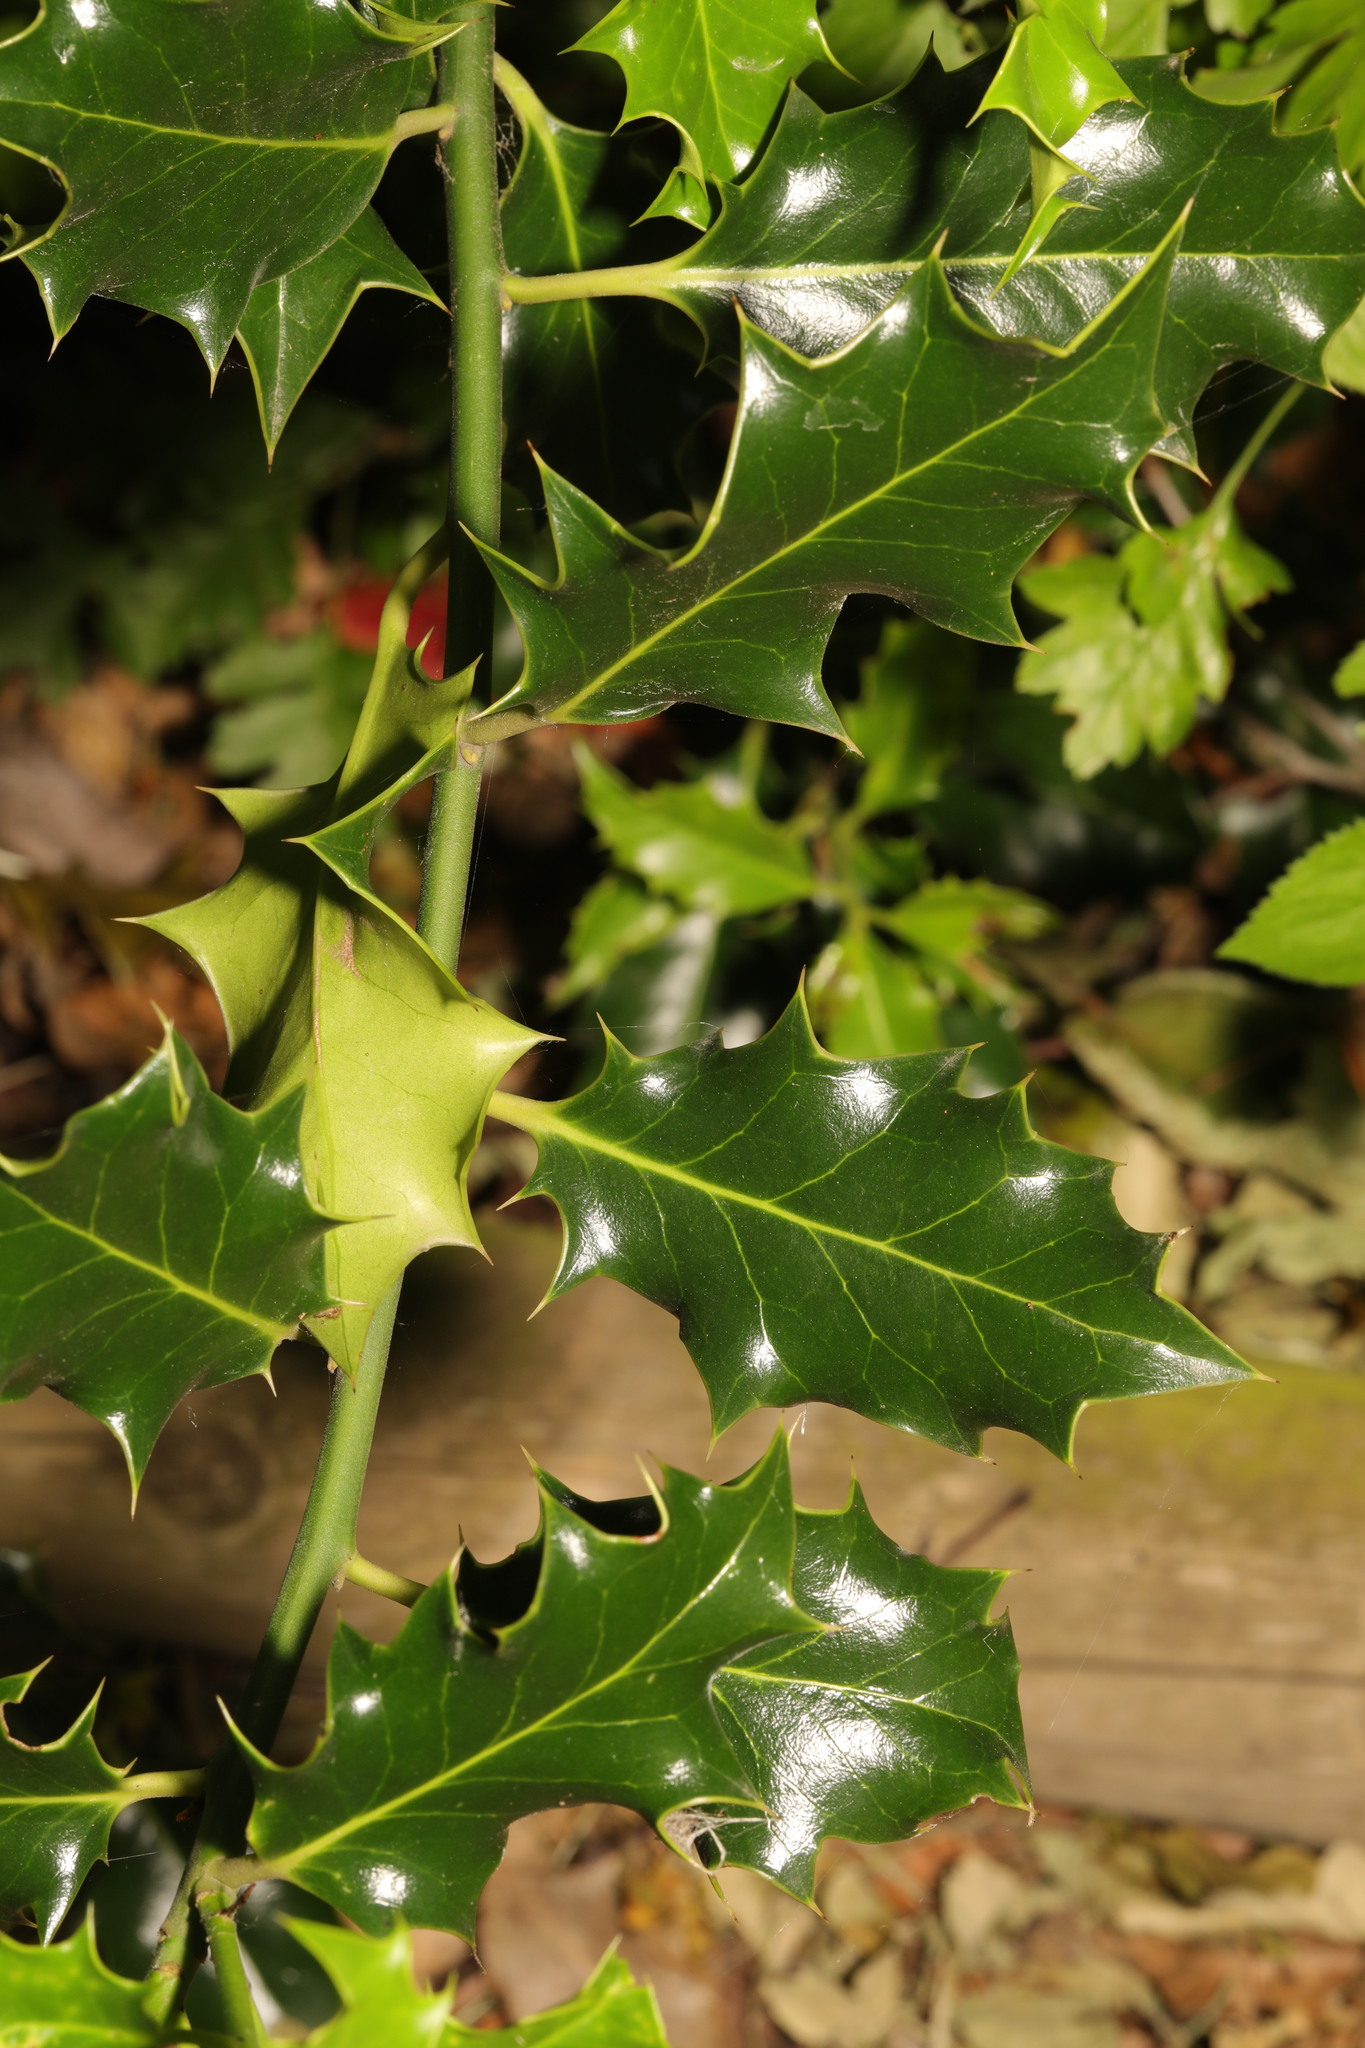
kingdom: Plantae
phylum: Tracheophyta
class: Magnoliopsida
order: Aquifoliales
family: Aquifoliaceae
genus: Ilex
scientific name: Ilex aquifolium
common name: English holly
